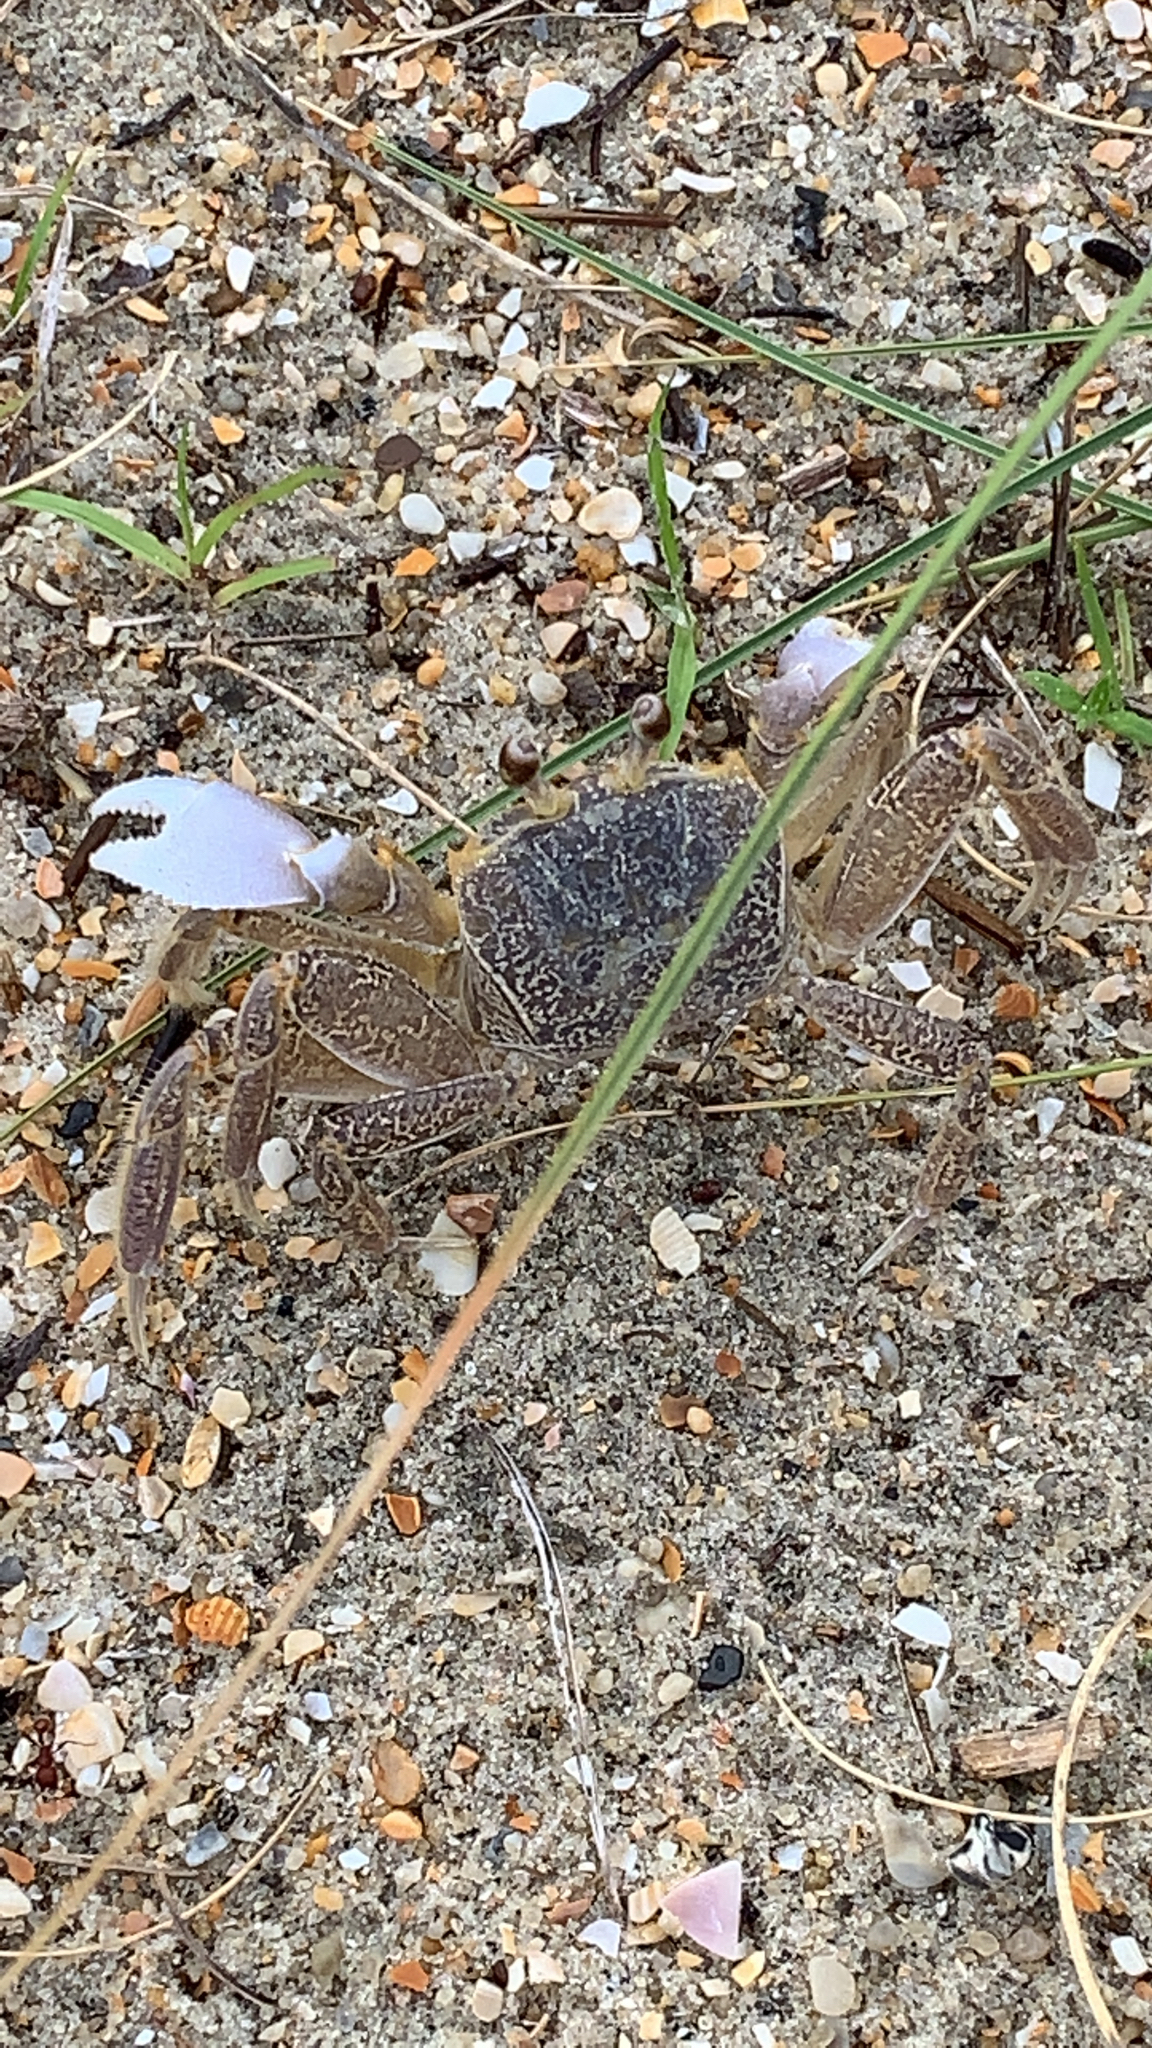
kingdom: Animalia
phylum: Arthropoda
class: Malacostraca
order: Decapoda
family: Ocypodidae
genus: Ocypode
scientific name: Ocypode quadrata
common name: Ghost crab
